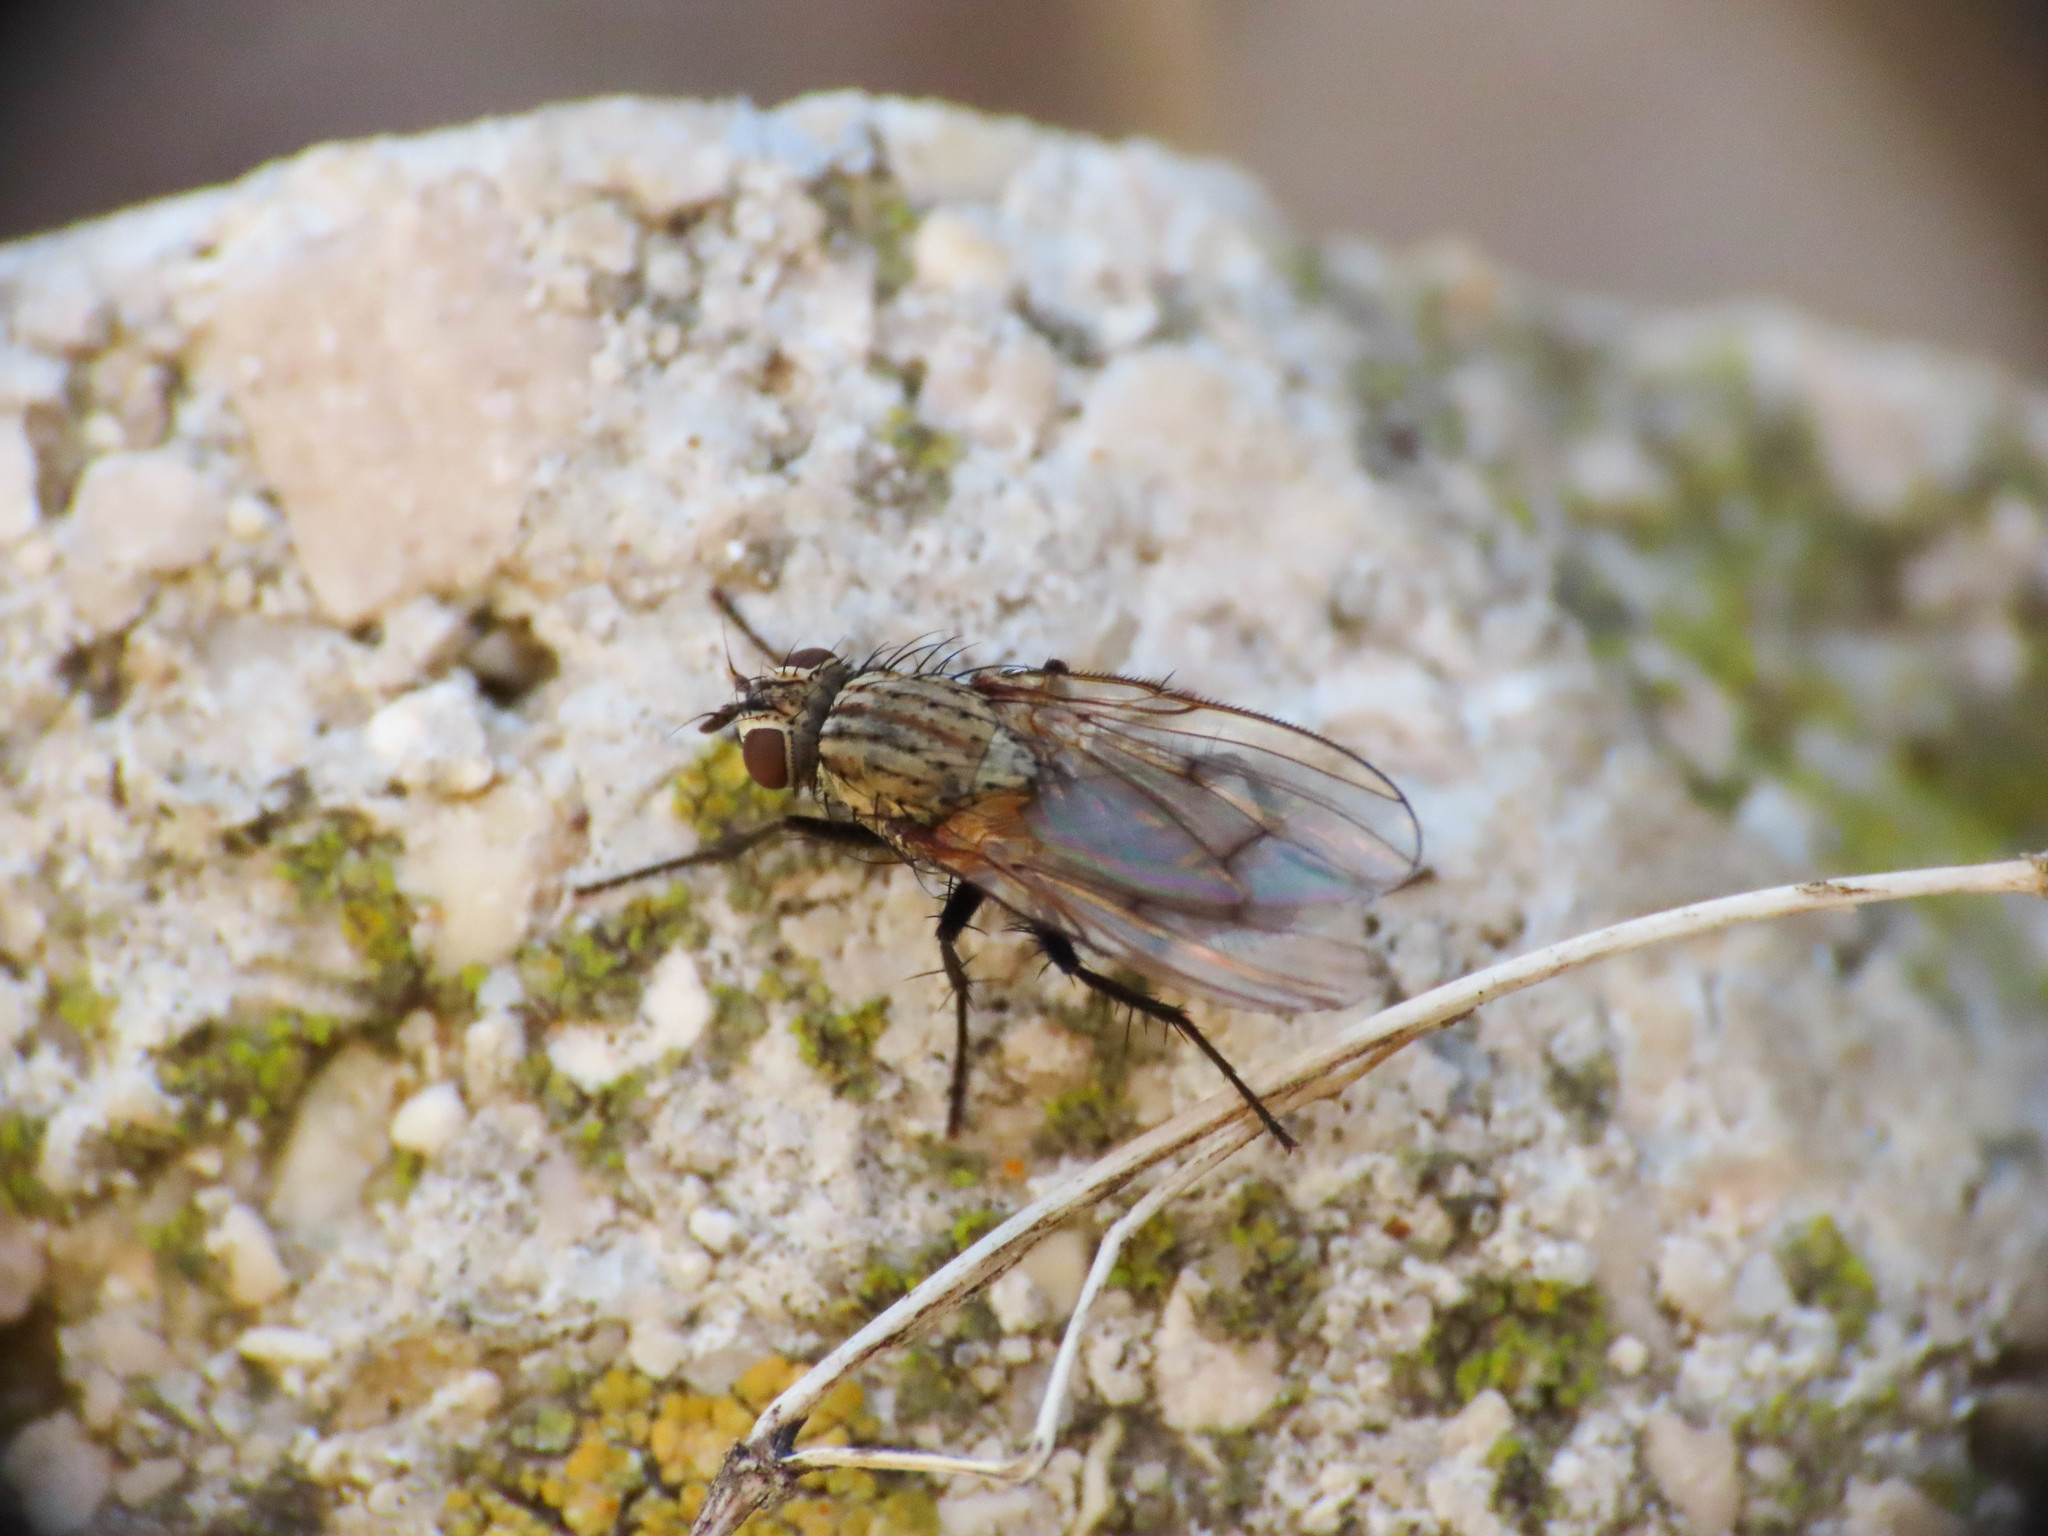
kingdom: Animalia
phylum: Arthropoda
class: Insecta
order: Diptera
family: Anthomyiidae
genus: Anthomyia
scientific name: Anthomyia liturata
